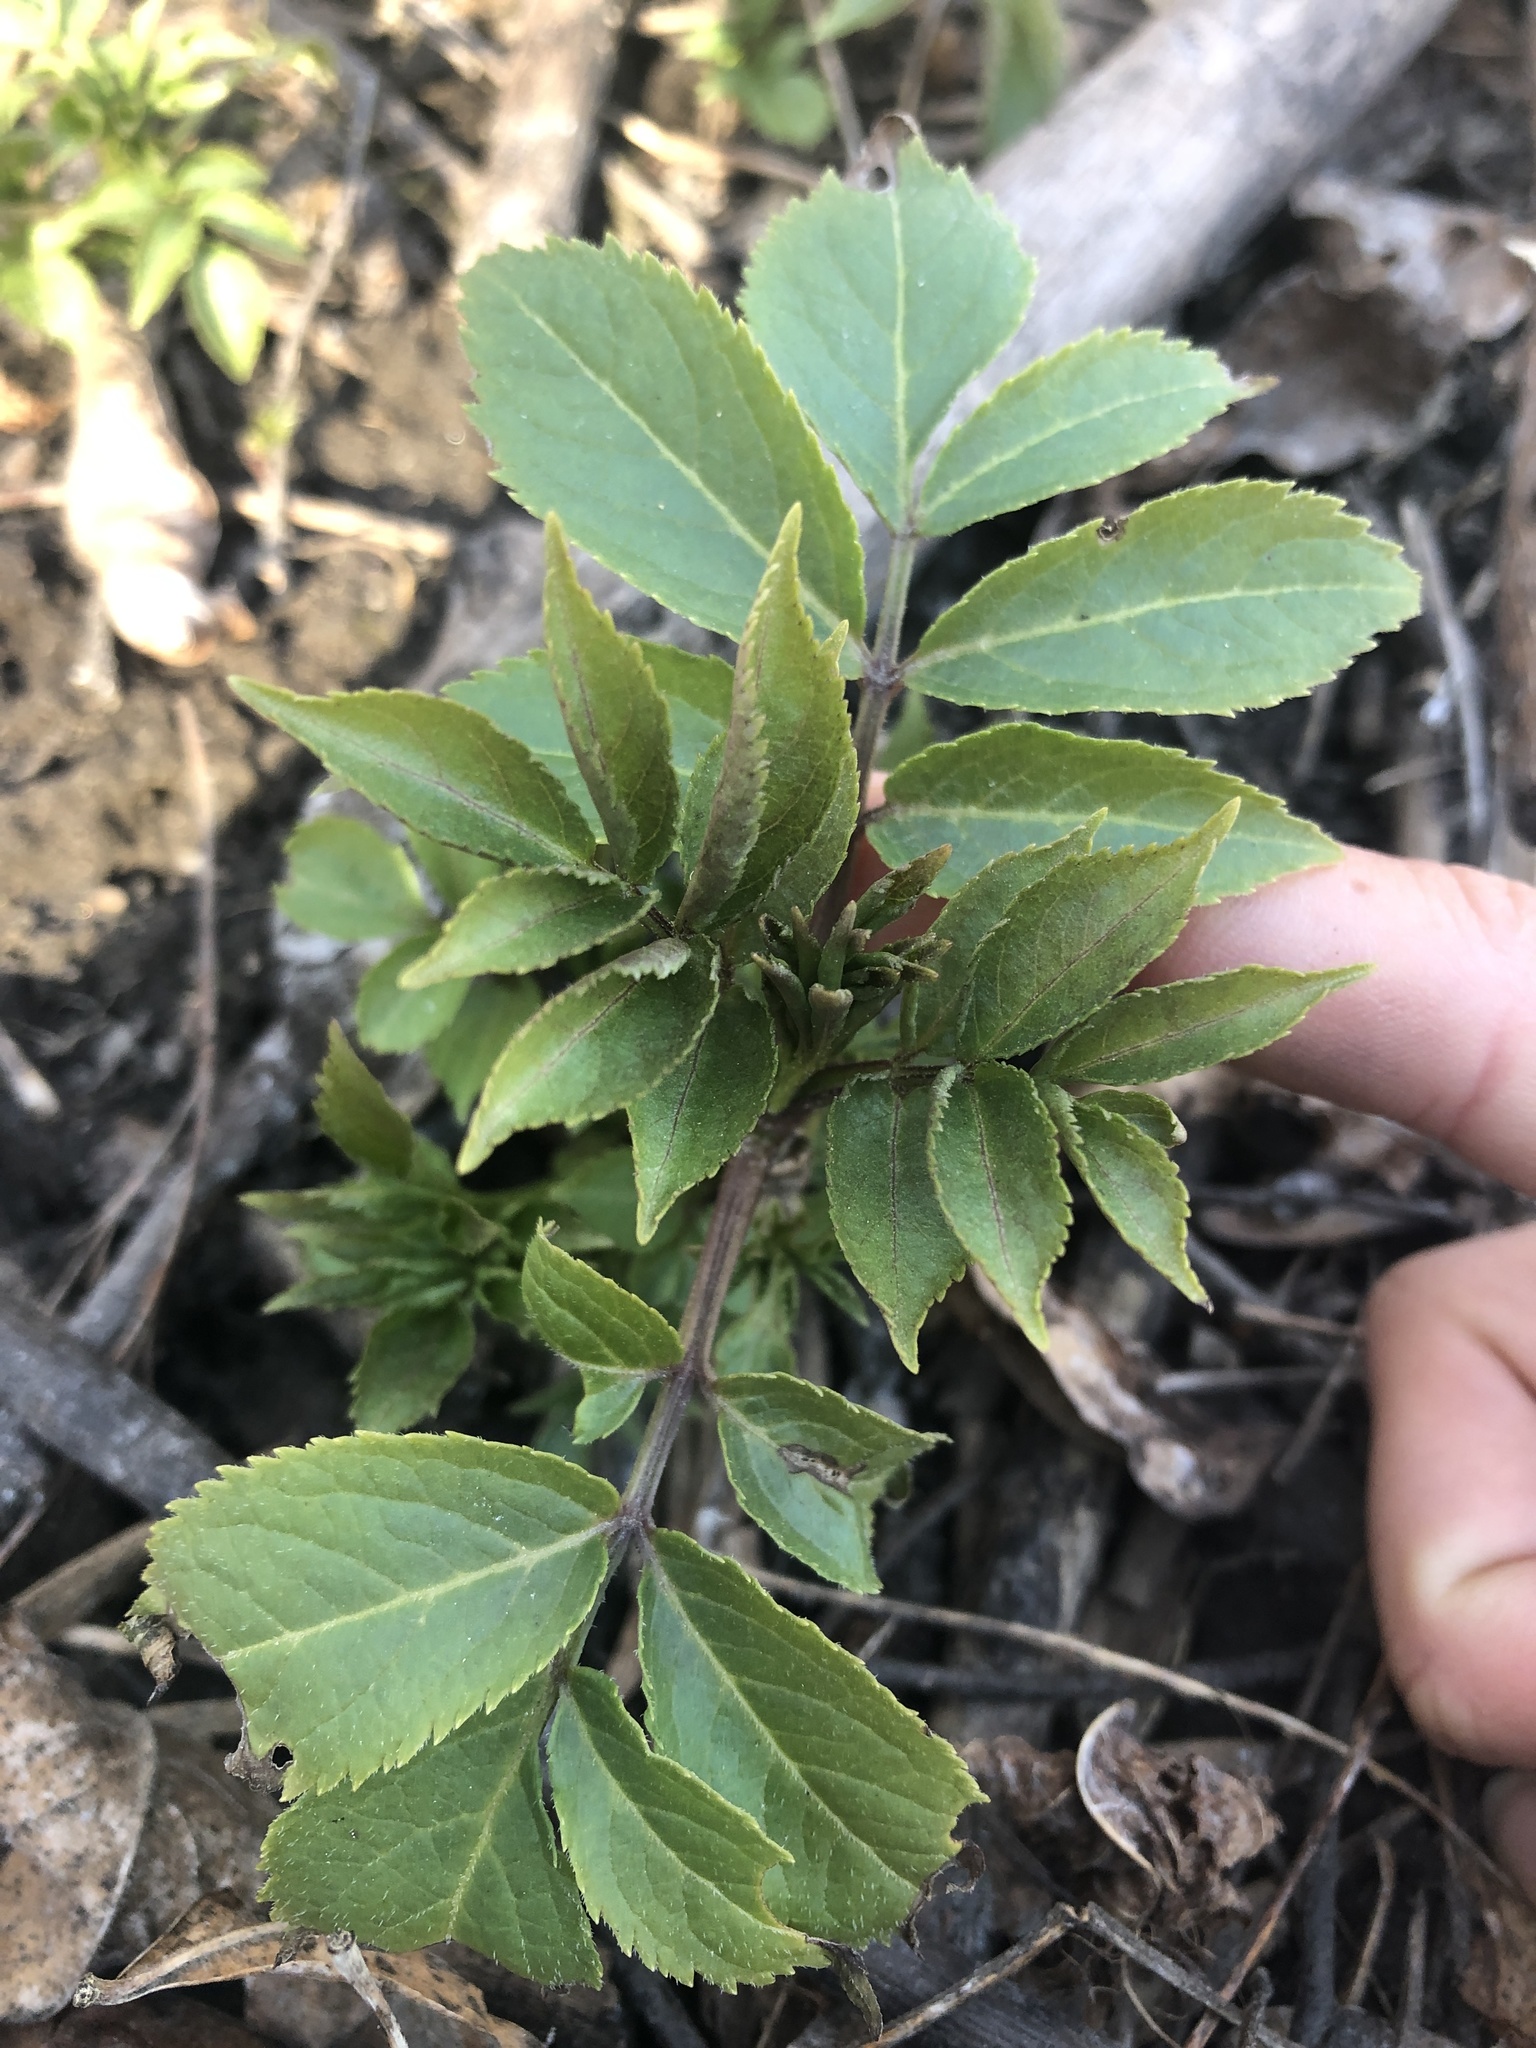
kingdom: Plantae
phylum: Tracheophyta
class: Magnoliopsida
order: Dipsacales
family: Viburnaceae
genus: Sambucus
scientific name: Sambucus racemosa
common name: Red-berried elder
